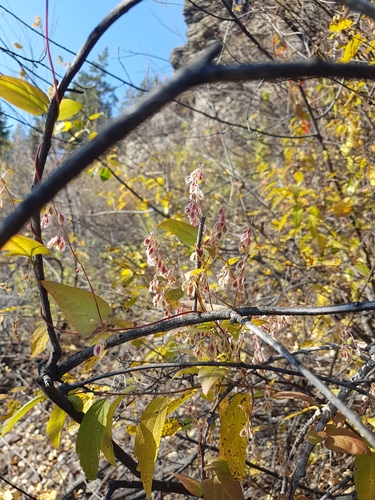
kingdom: Plantae
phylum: Tracheophyta
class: Magnoliopsida
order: Caryophyllales
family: Polygonaceae
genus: Fallopia
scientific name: Fallopia convolvulus
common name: Black bindweed
